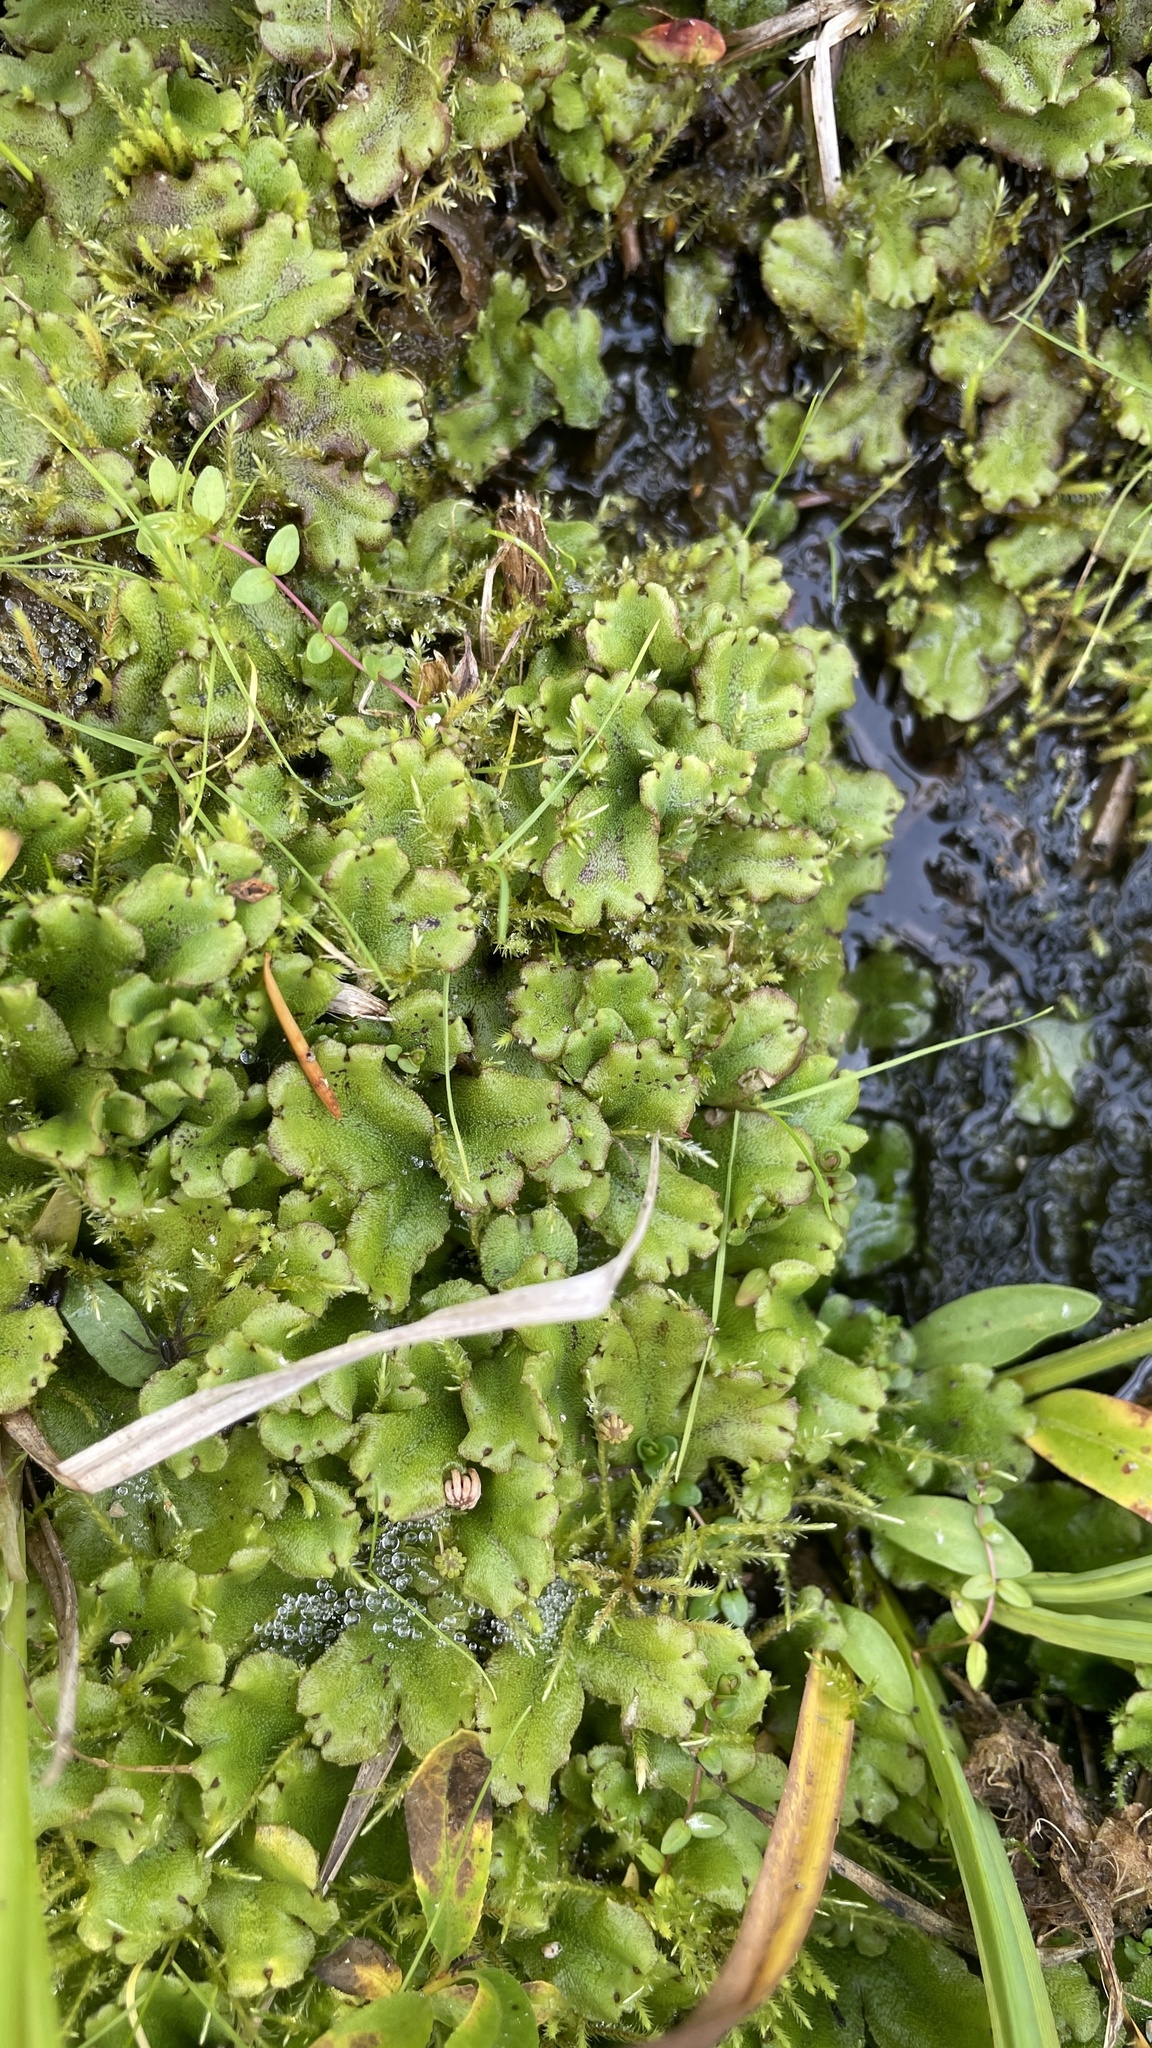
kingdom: Plantae
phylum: Marchantiophyta
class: Marchantiopsida
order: Marchantiales
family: Marchantiaceae
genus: Marchantia
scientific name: Marchantia polymorpha
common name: Common liverwort
